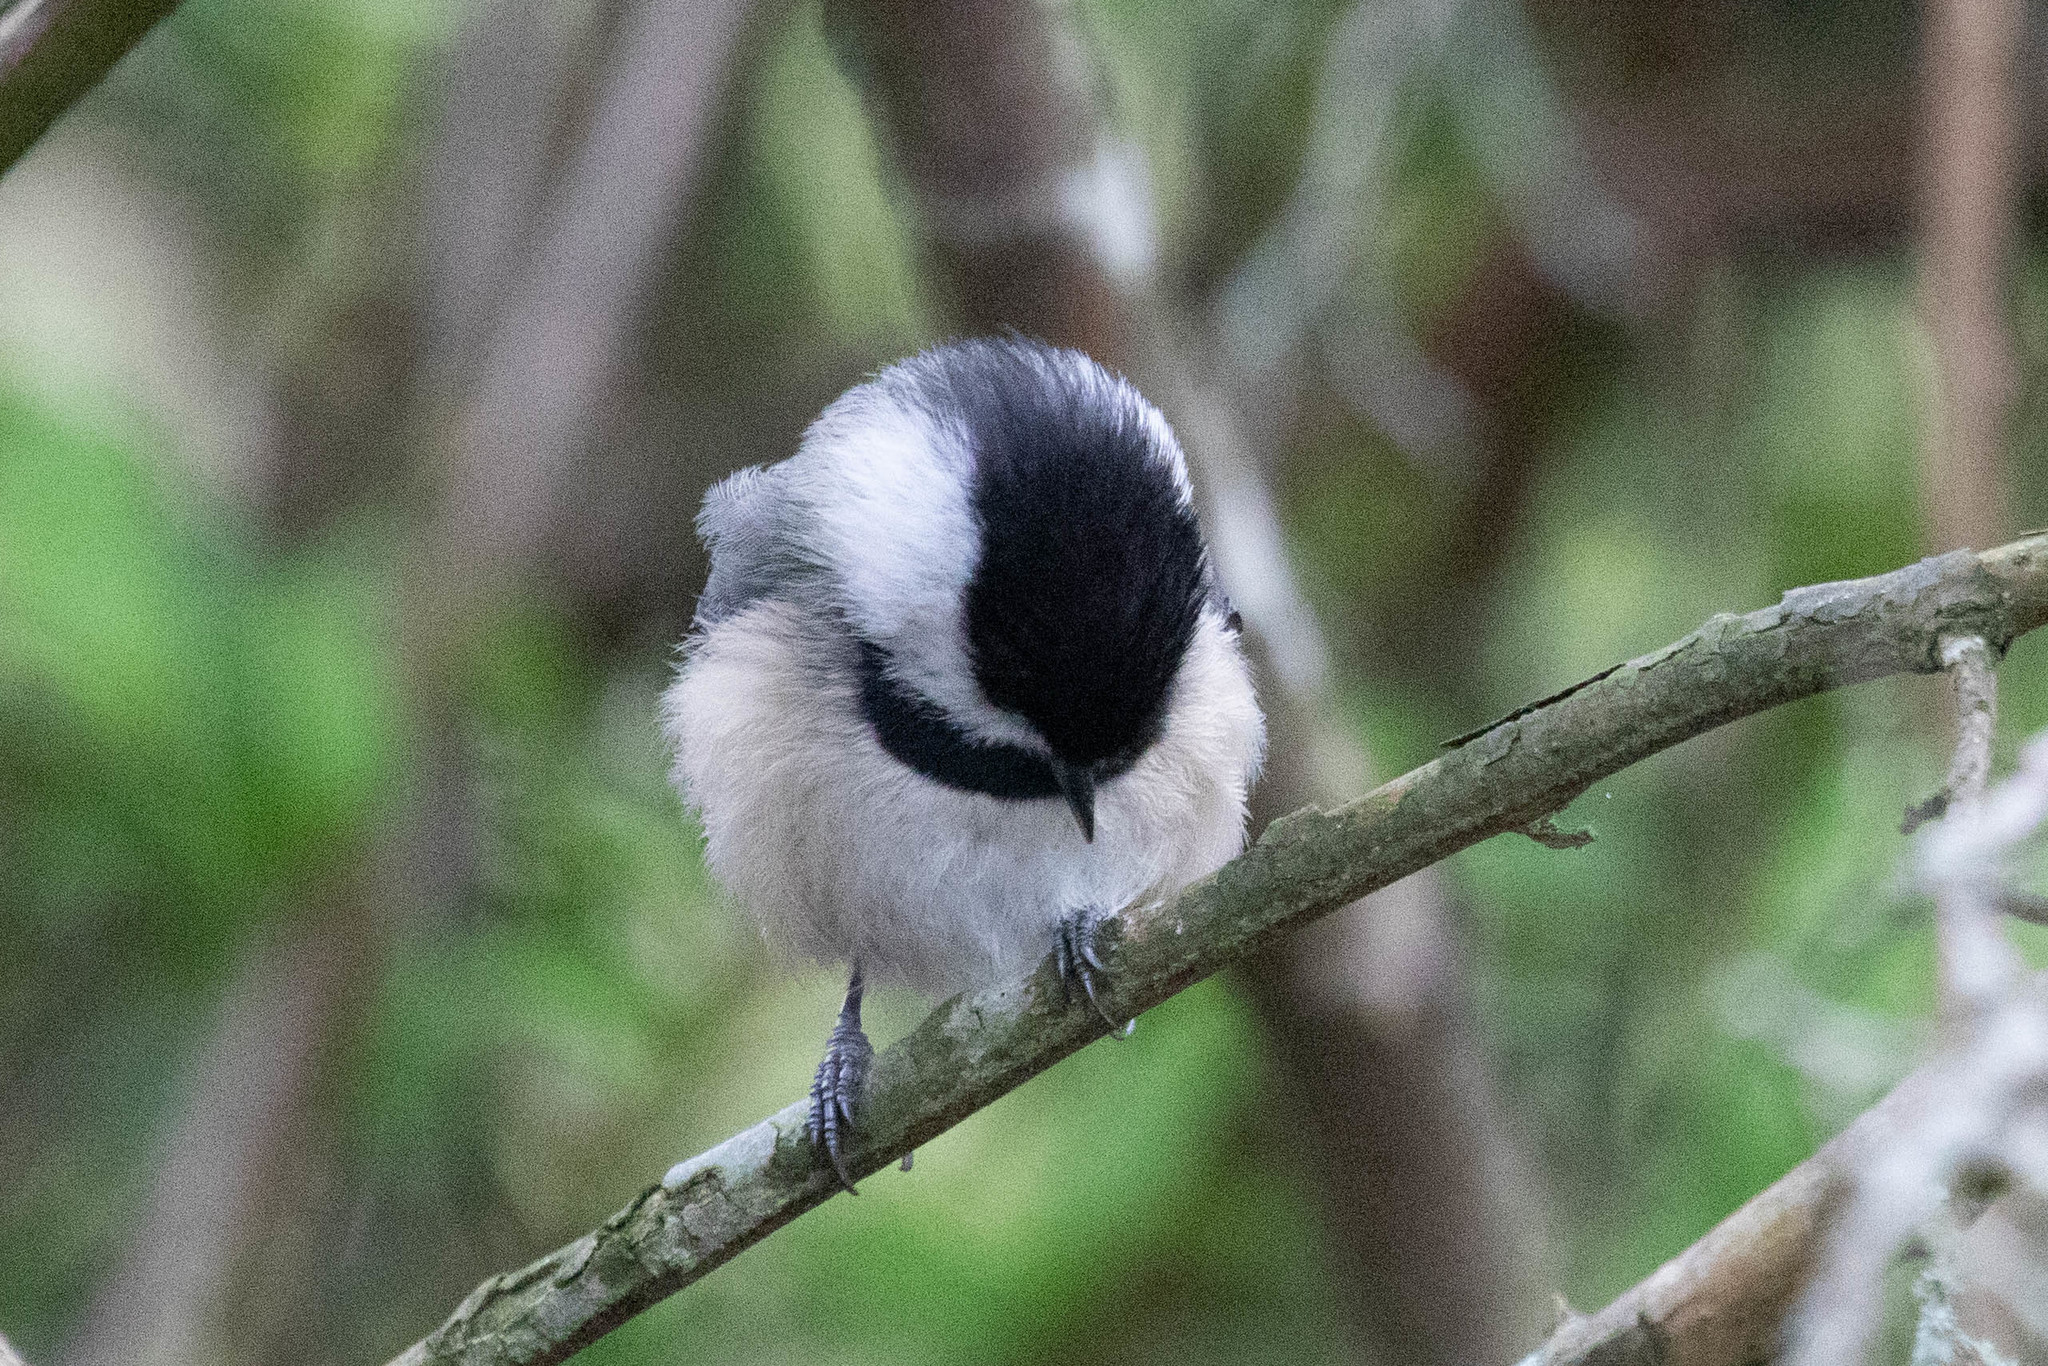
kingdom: Animalia
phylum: Chordata
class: Aves
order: Passeriformes
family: Paridae
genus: Poecile
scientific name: Poecile atricapillus
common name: Black-capped chickadee
